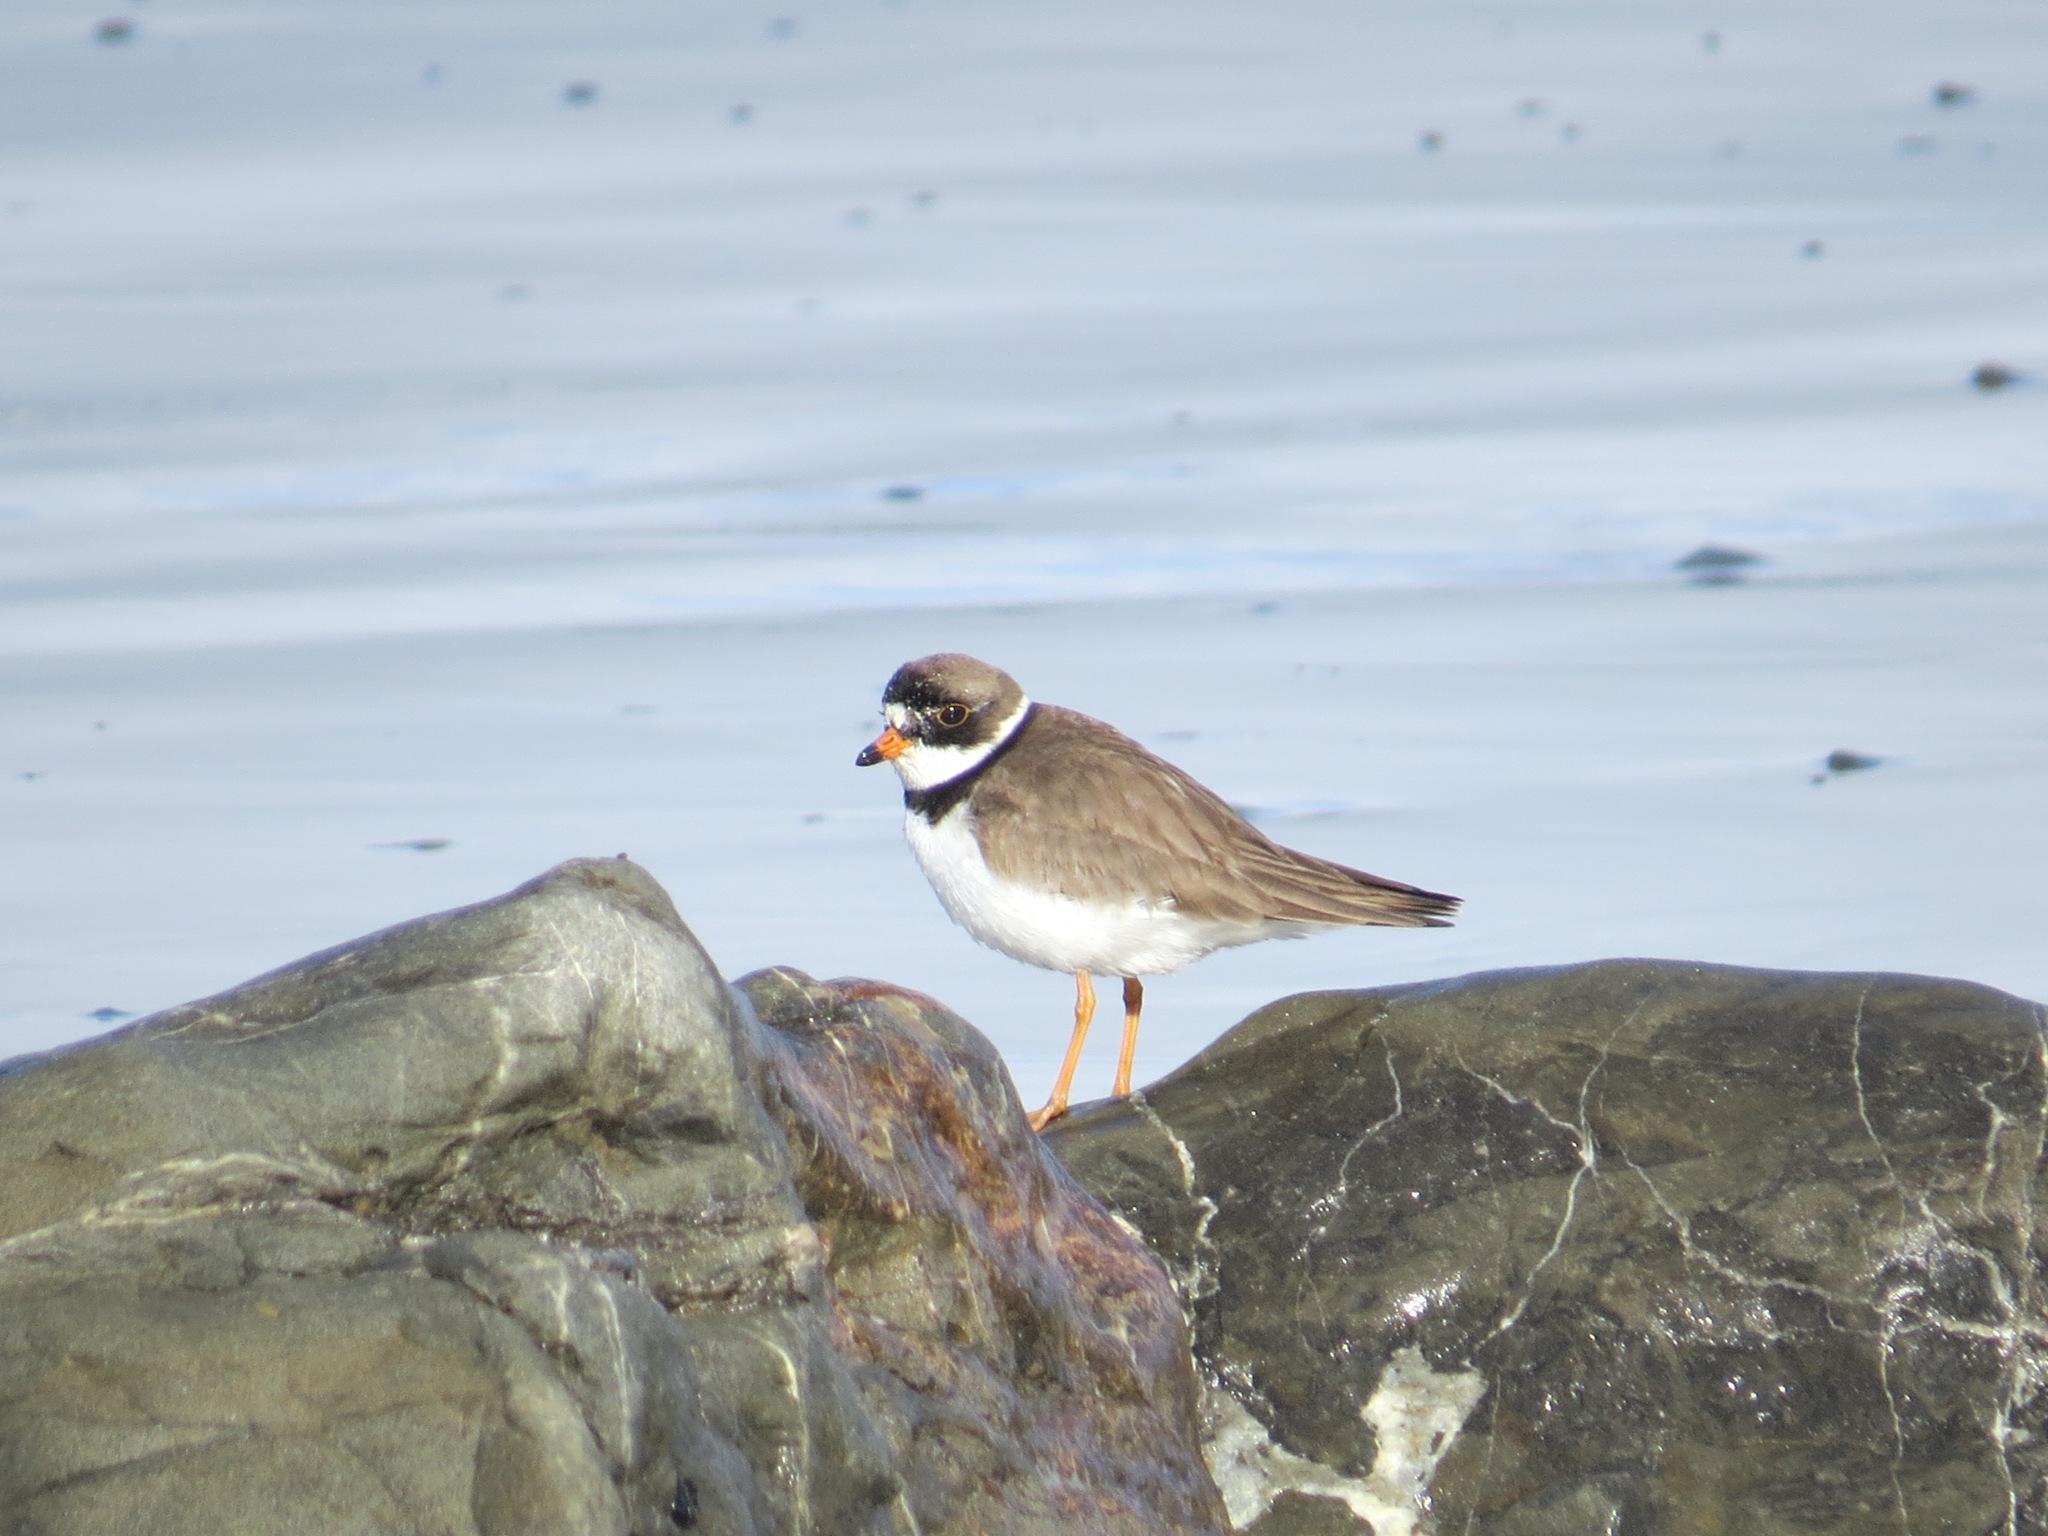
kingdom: Animalia
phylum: Chordata
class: Aves
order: Charadriiformes
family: Charadriidae
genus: Charadrius
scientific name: Charadrius semipalmatus
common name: Semipalmated plover
